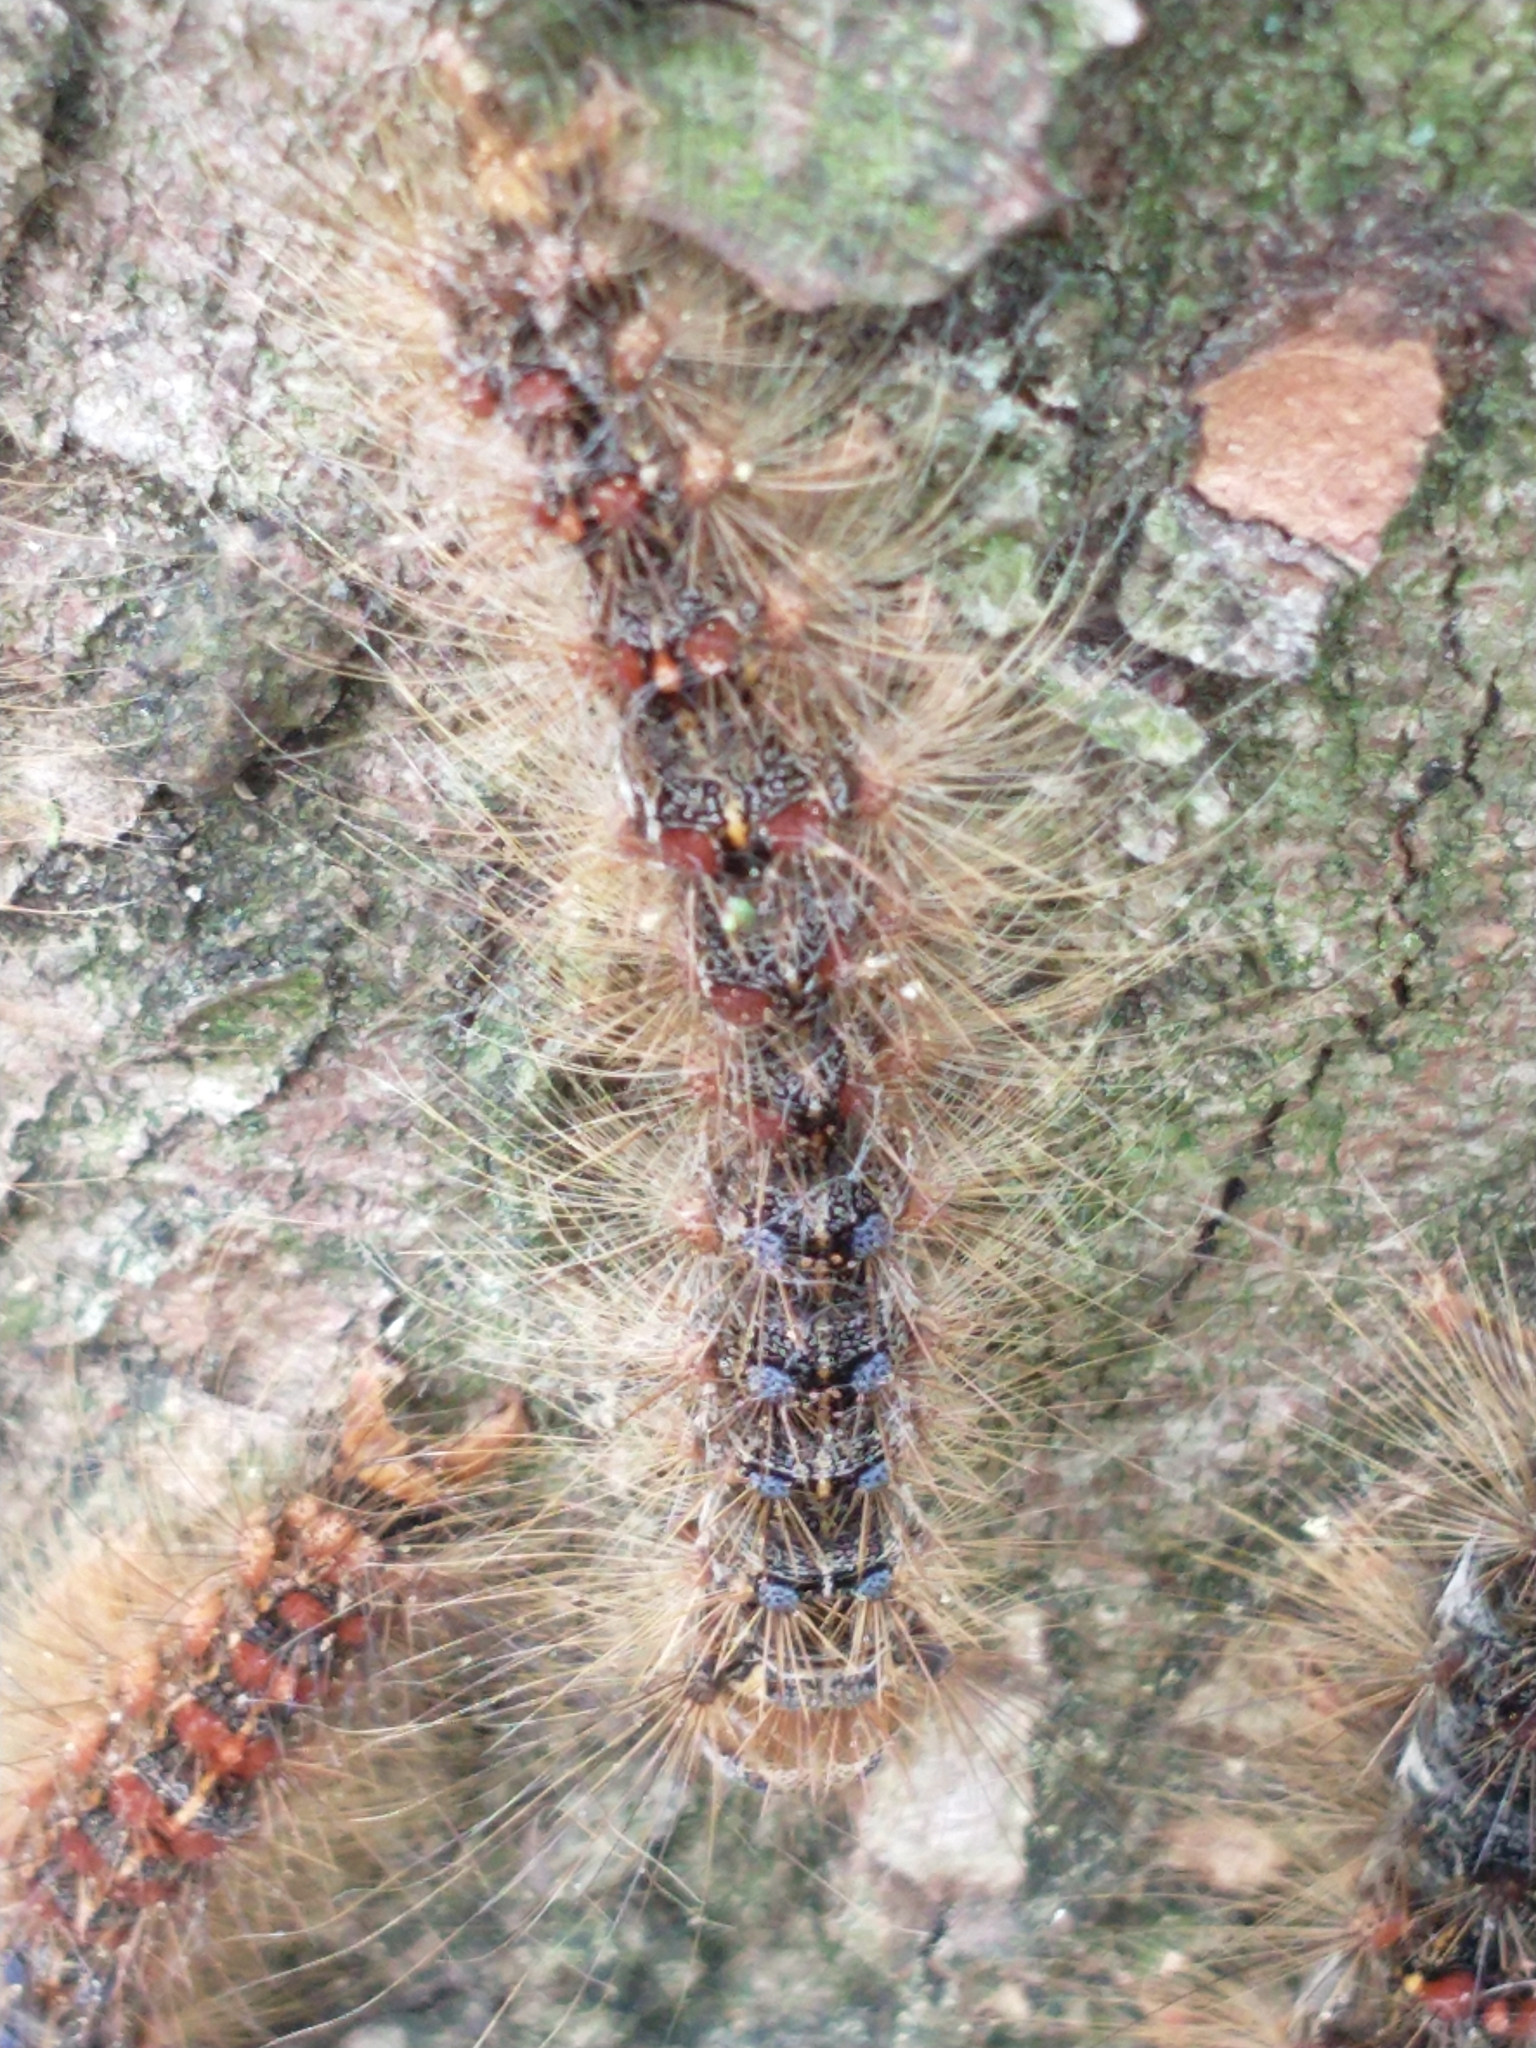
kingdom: Animalia
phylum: Arthropoda
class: Insecta
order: Lepidoptera
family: Erebidae
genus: Lymantria
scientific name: Lymantria dispar
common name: Gypsy moth
